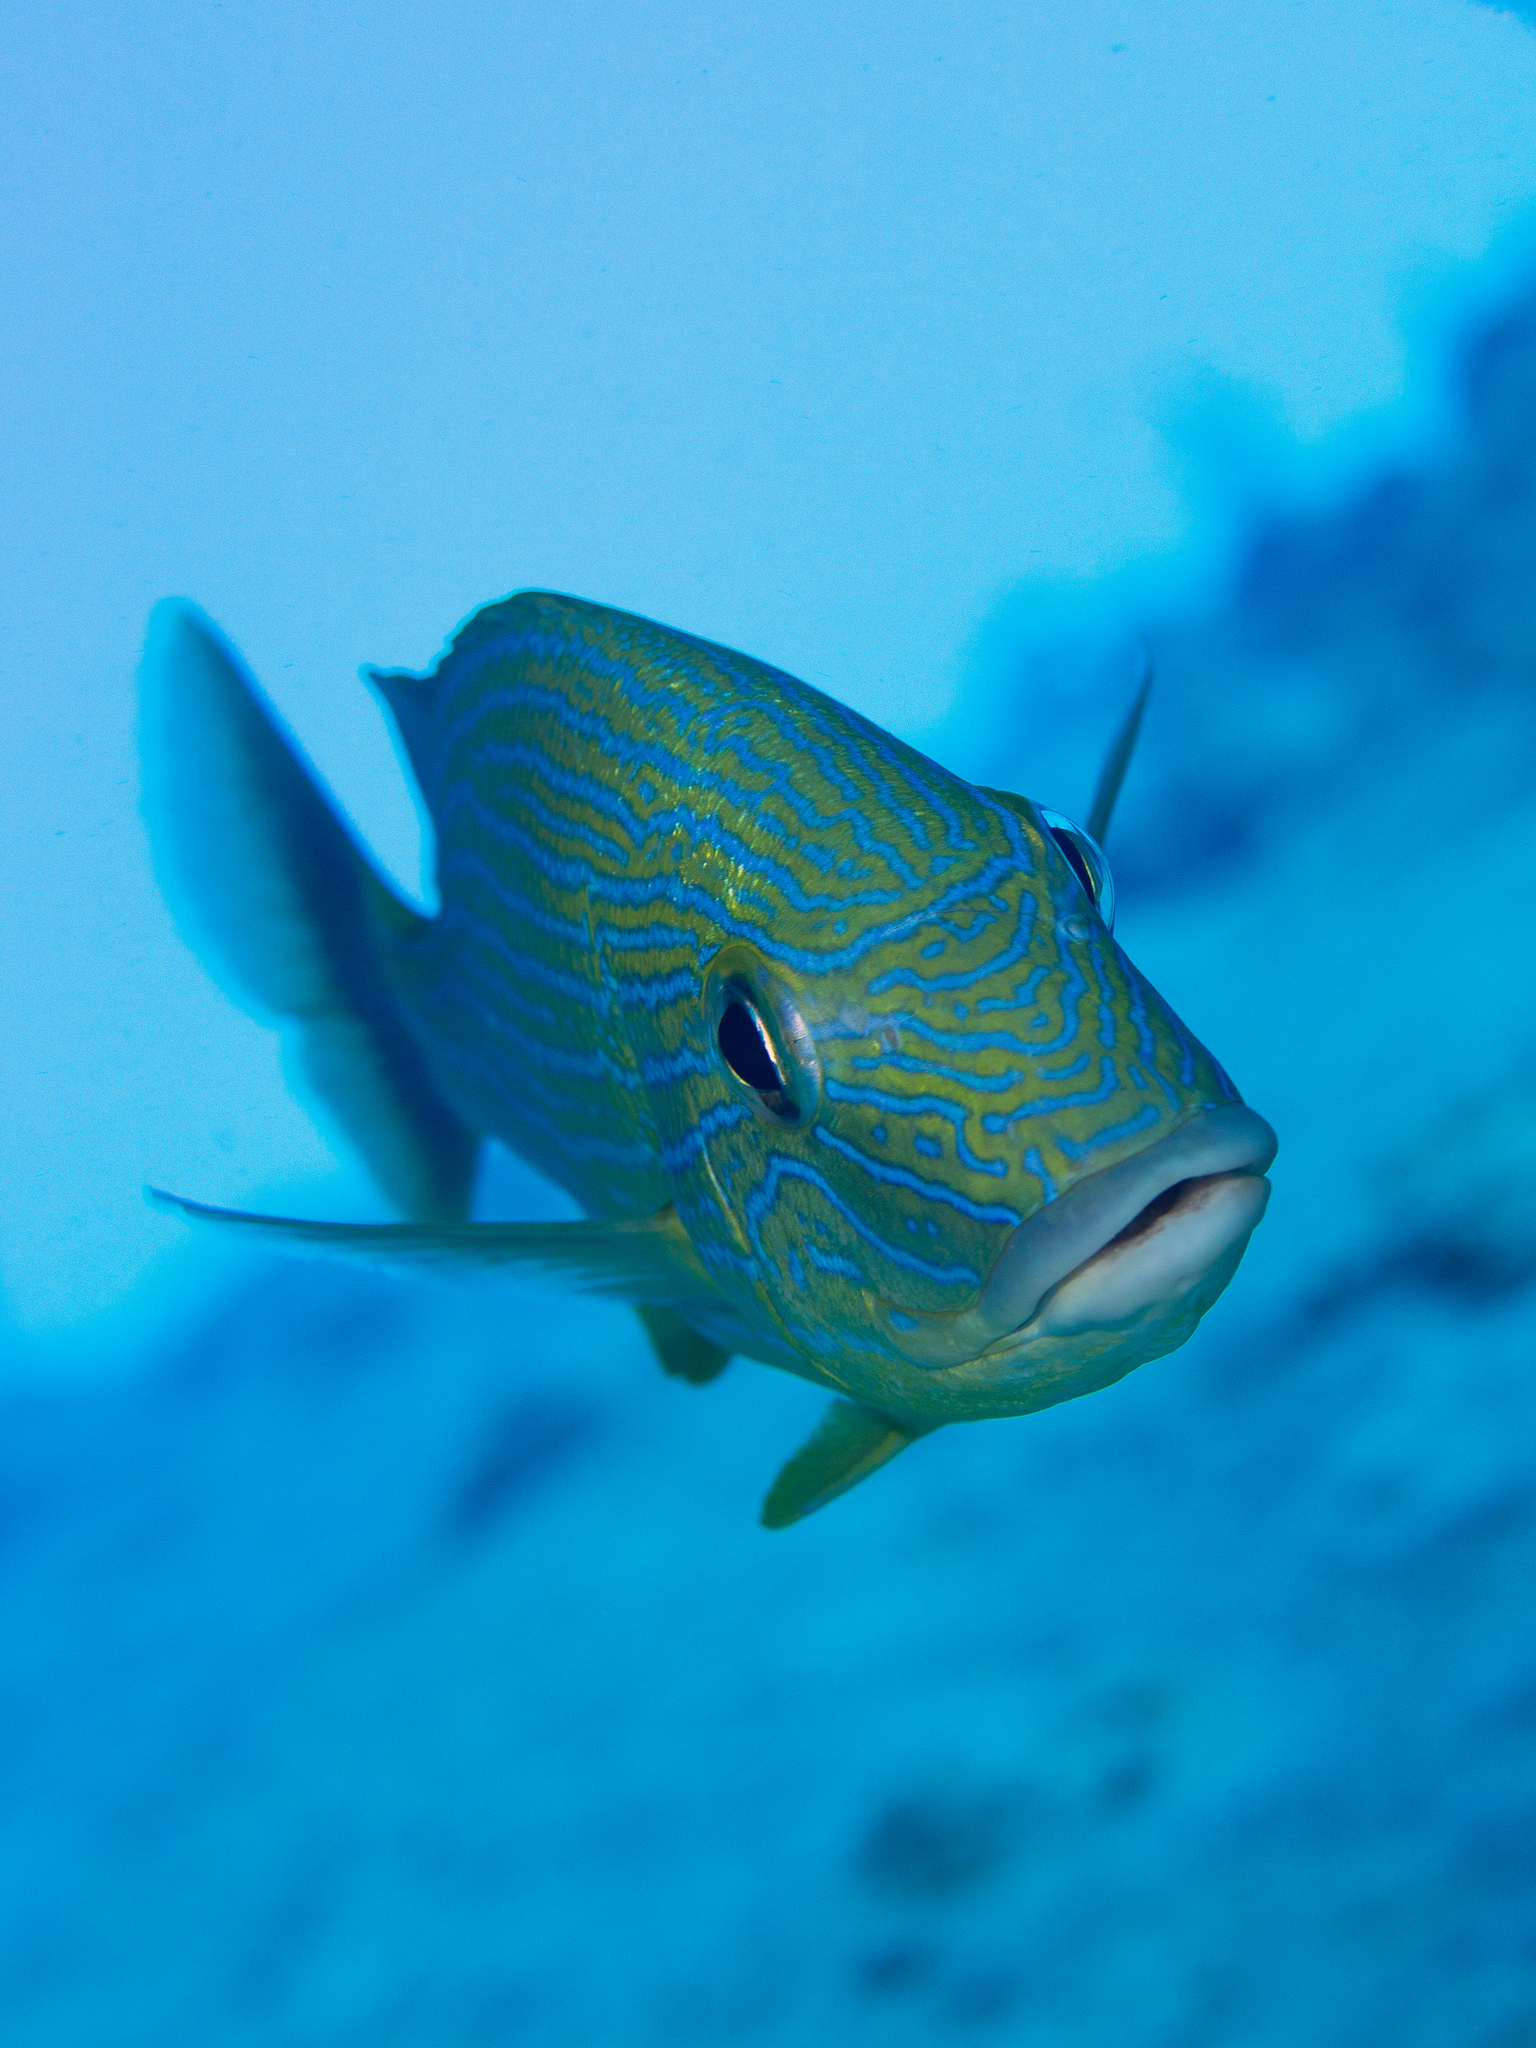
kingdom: Animalia
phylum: Chordata
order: Perciformes
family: Haemulidae
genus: Haemulon
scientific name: Haemulon sciurus
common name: Bluestriped grunt
